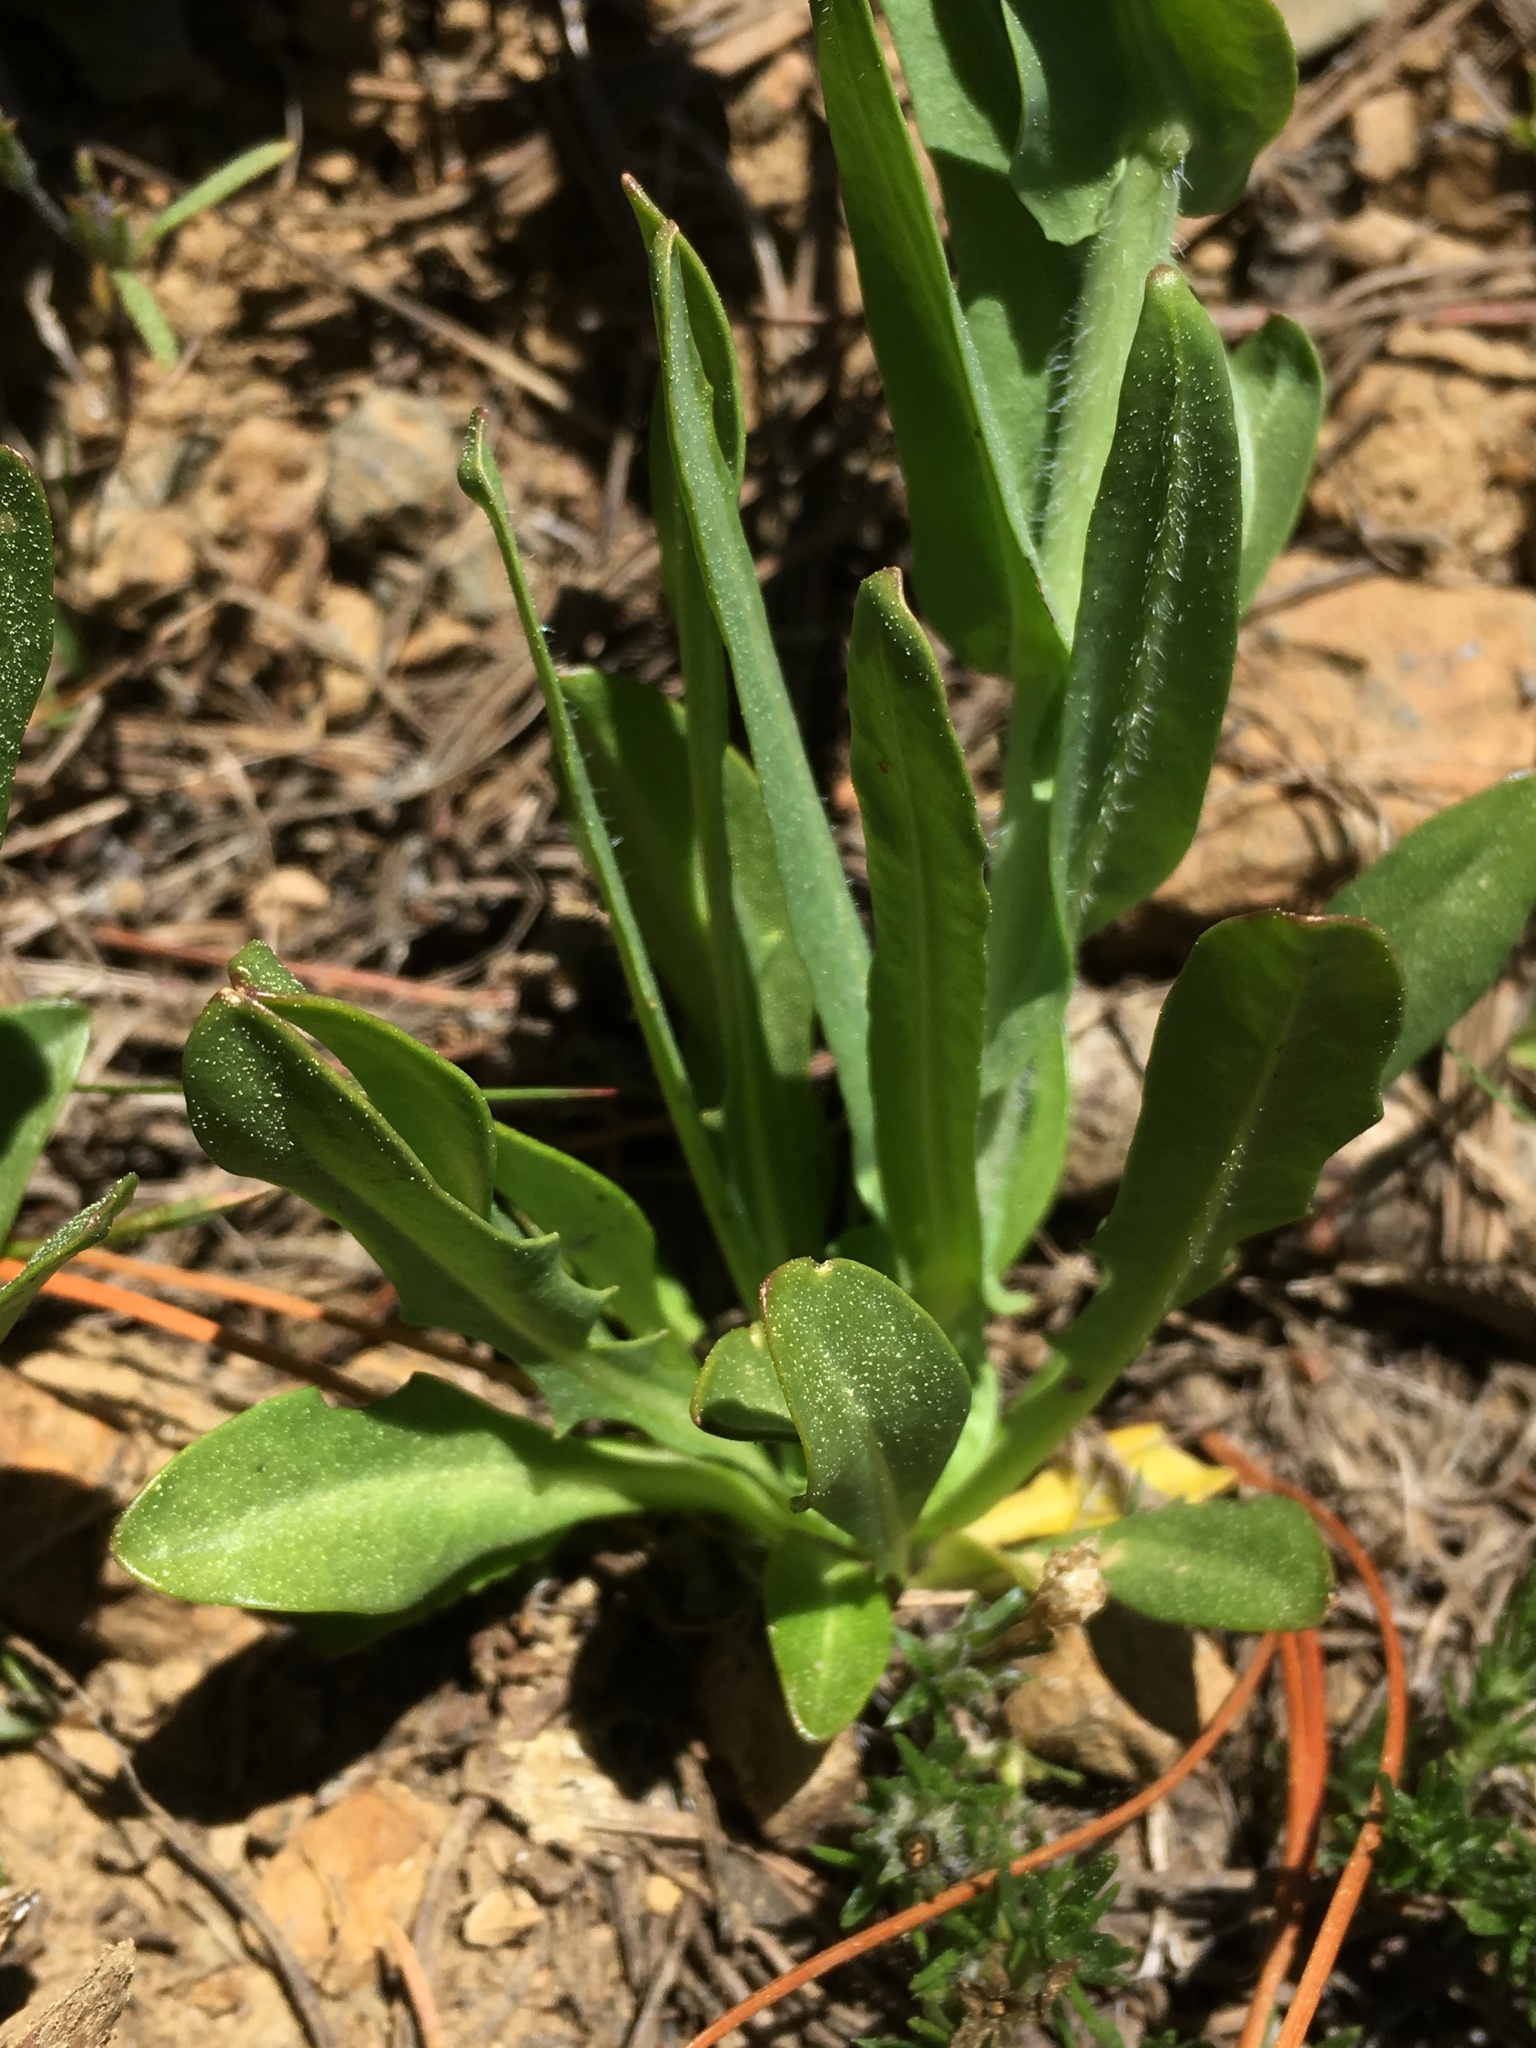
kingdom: Plantae
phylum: Tracheophyta
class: Magnoliopsida
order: Brassicales
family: Brassicaceae
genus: Thelypodium
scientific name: Thelypodium brachycarpum
